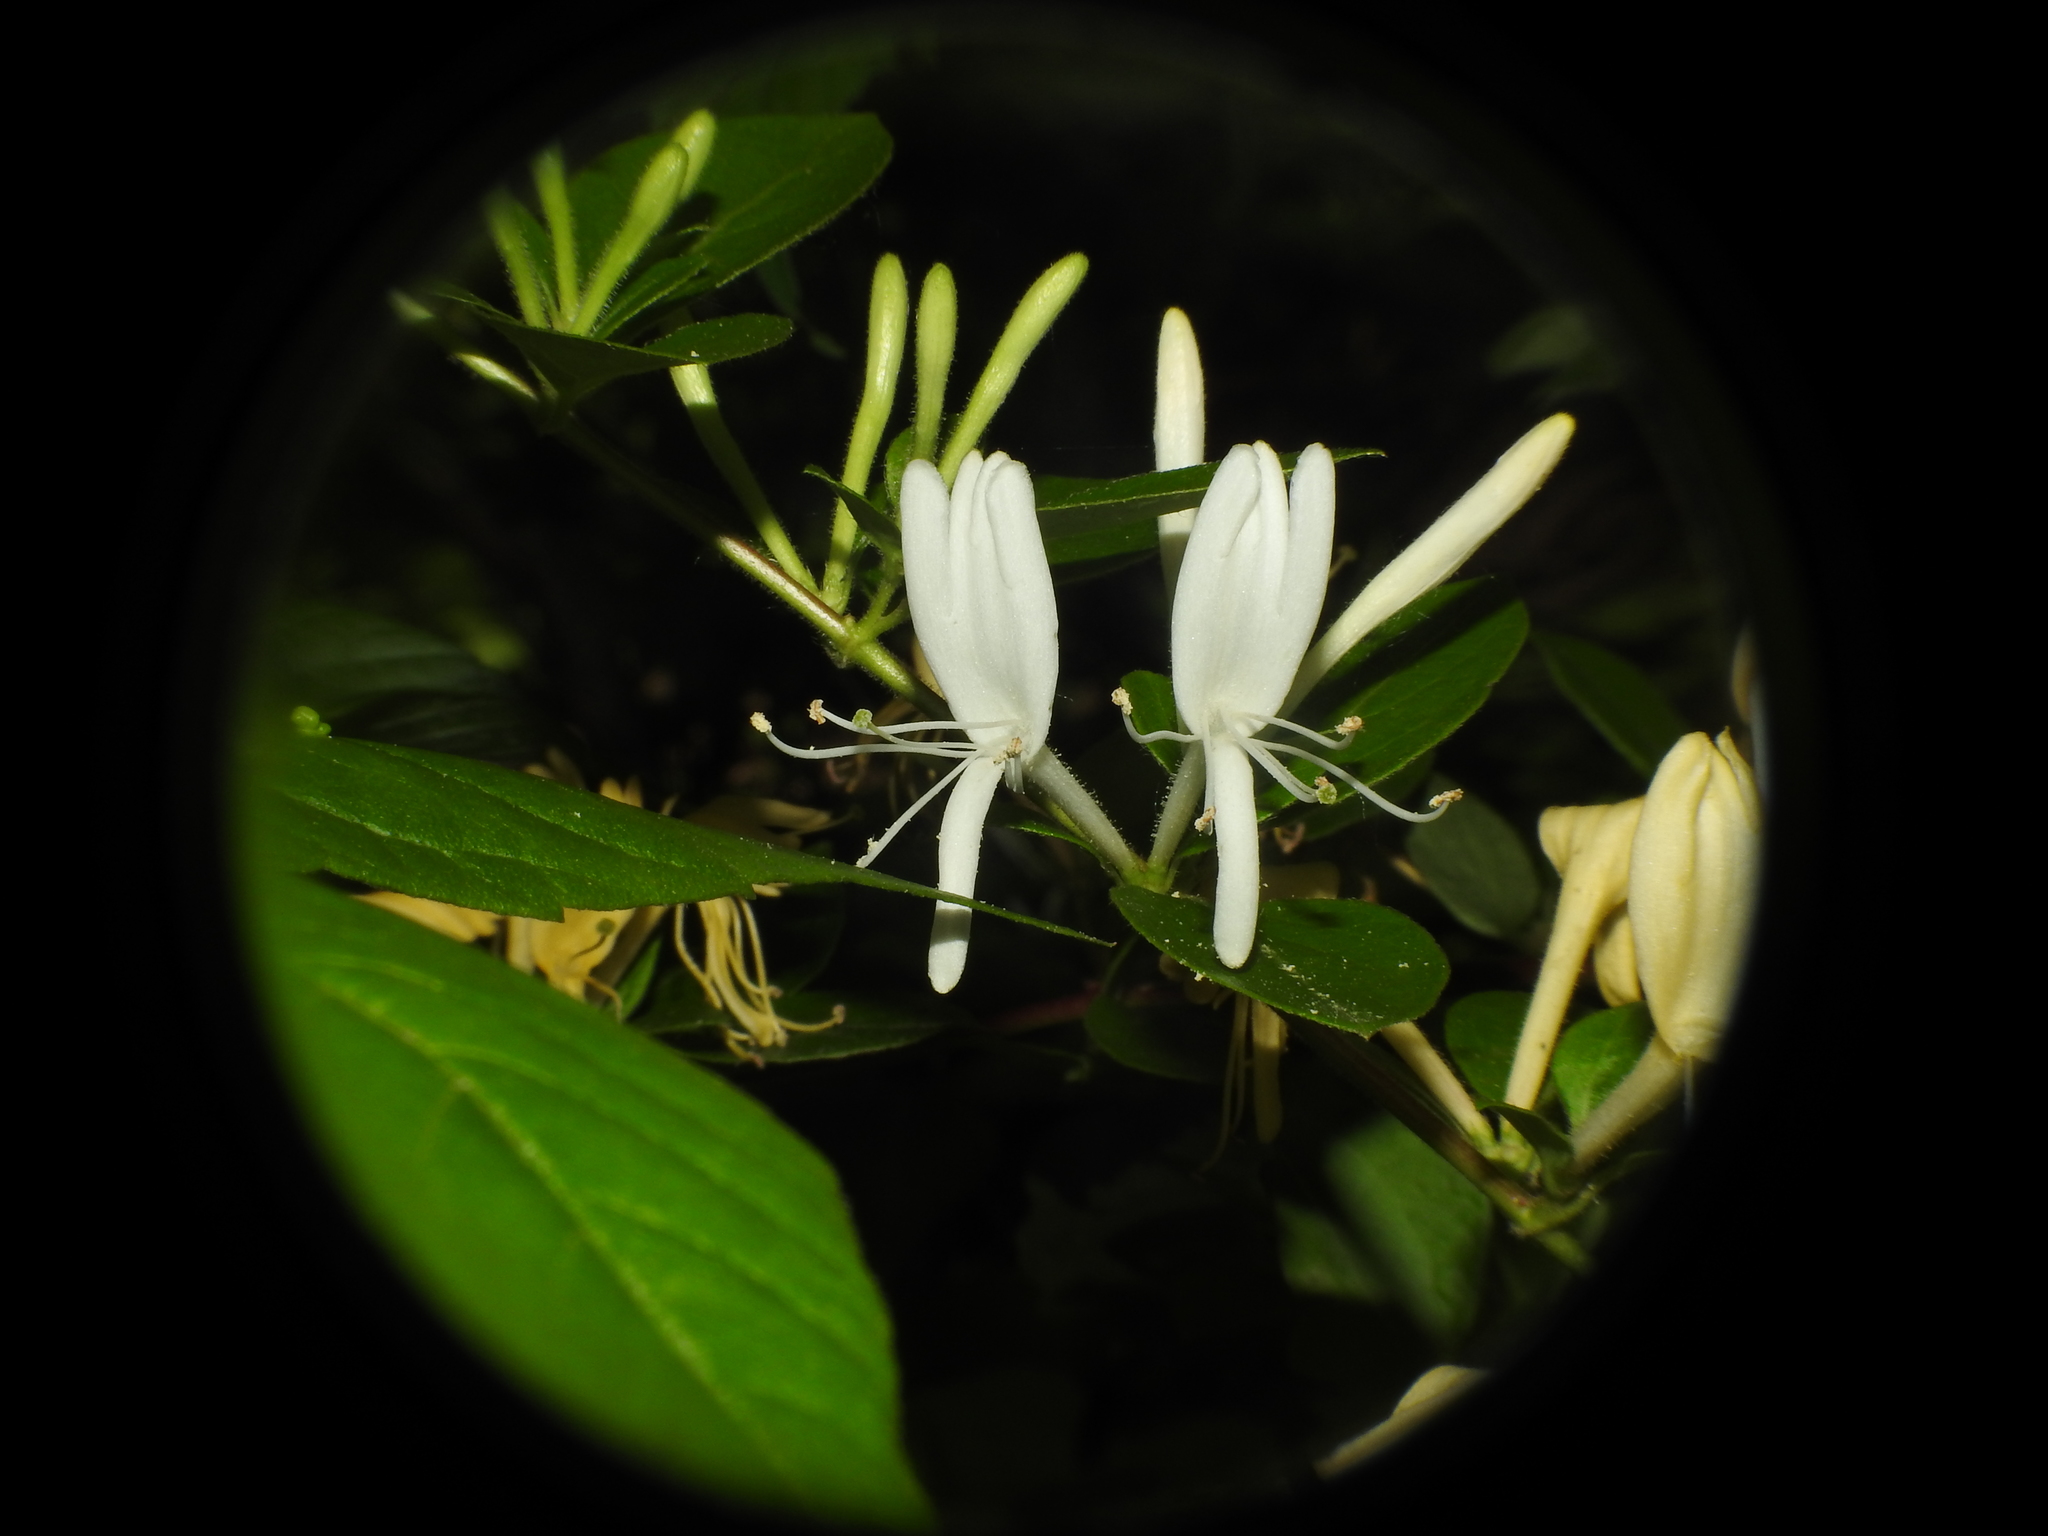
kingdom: Plantae
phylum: Tracheophyta
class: Magnoliopsida
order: Dipsacales
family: Caprifoliaceae
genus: Lonicera
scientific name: Lonicera japonica
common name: Japanese honeysuckle
